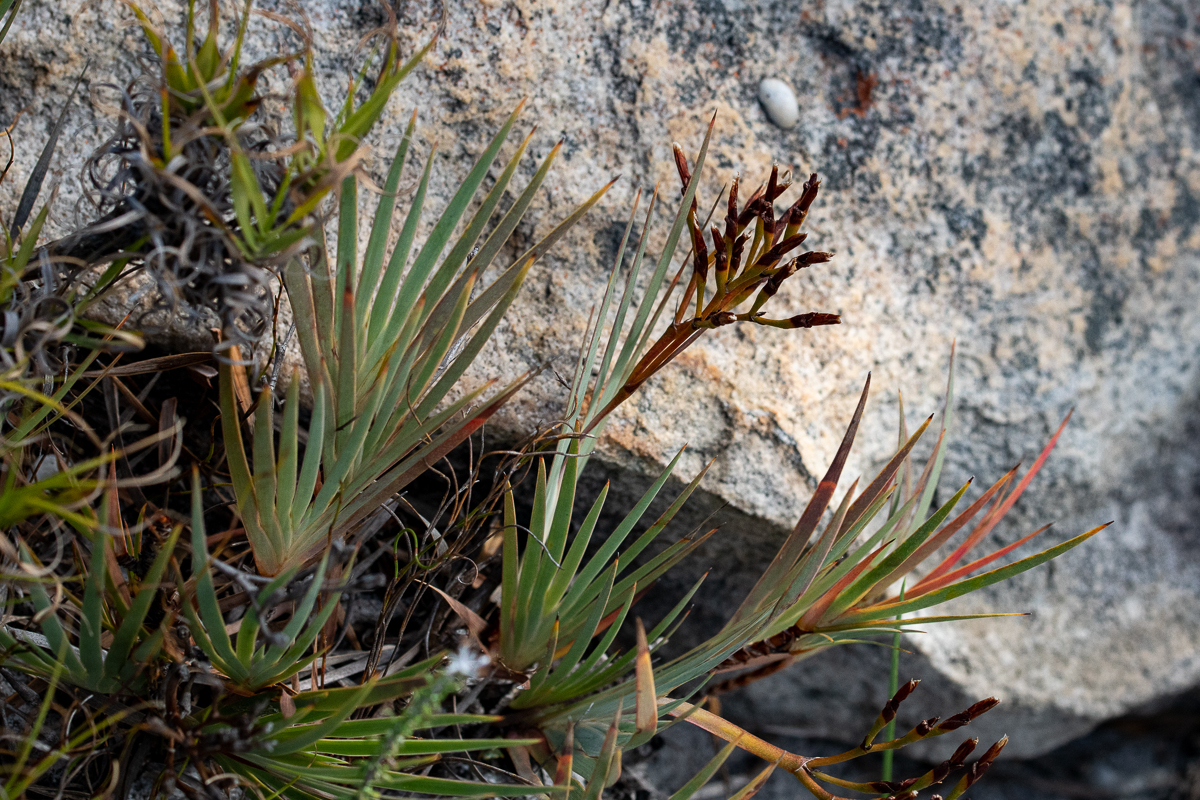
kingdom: Plantae
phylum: Tracheophyta
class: Liliopsida
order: Asparagales
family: Iridaceae
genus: Nivenia
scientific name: Nivenia stokoei
